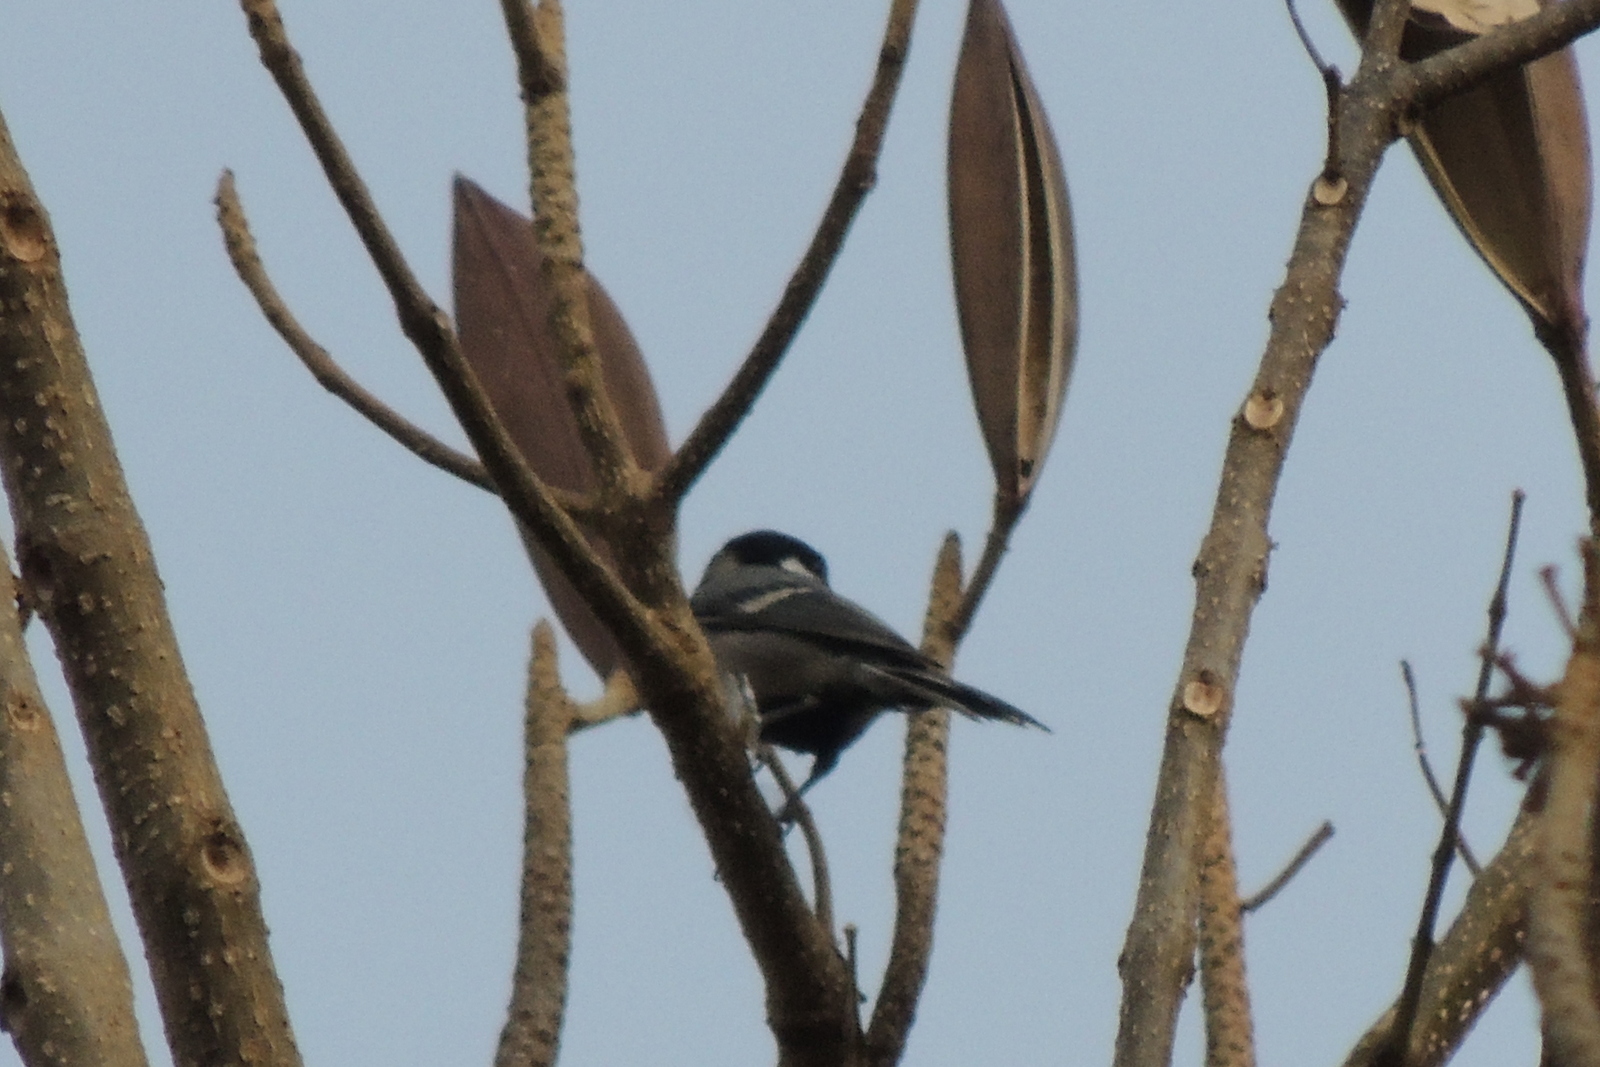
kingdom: Animalia
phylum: Chordata
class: Aves
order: Passeriformes
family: Paridae
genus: Parus
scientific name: Parus cinereus
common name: Cinereous tit
